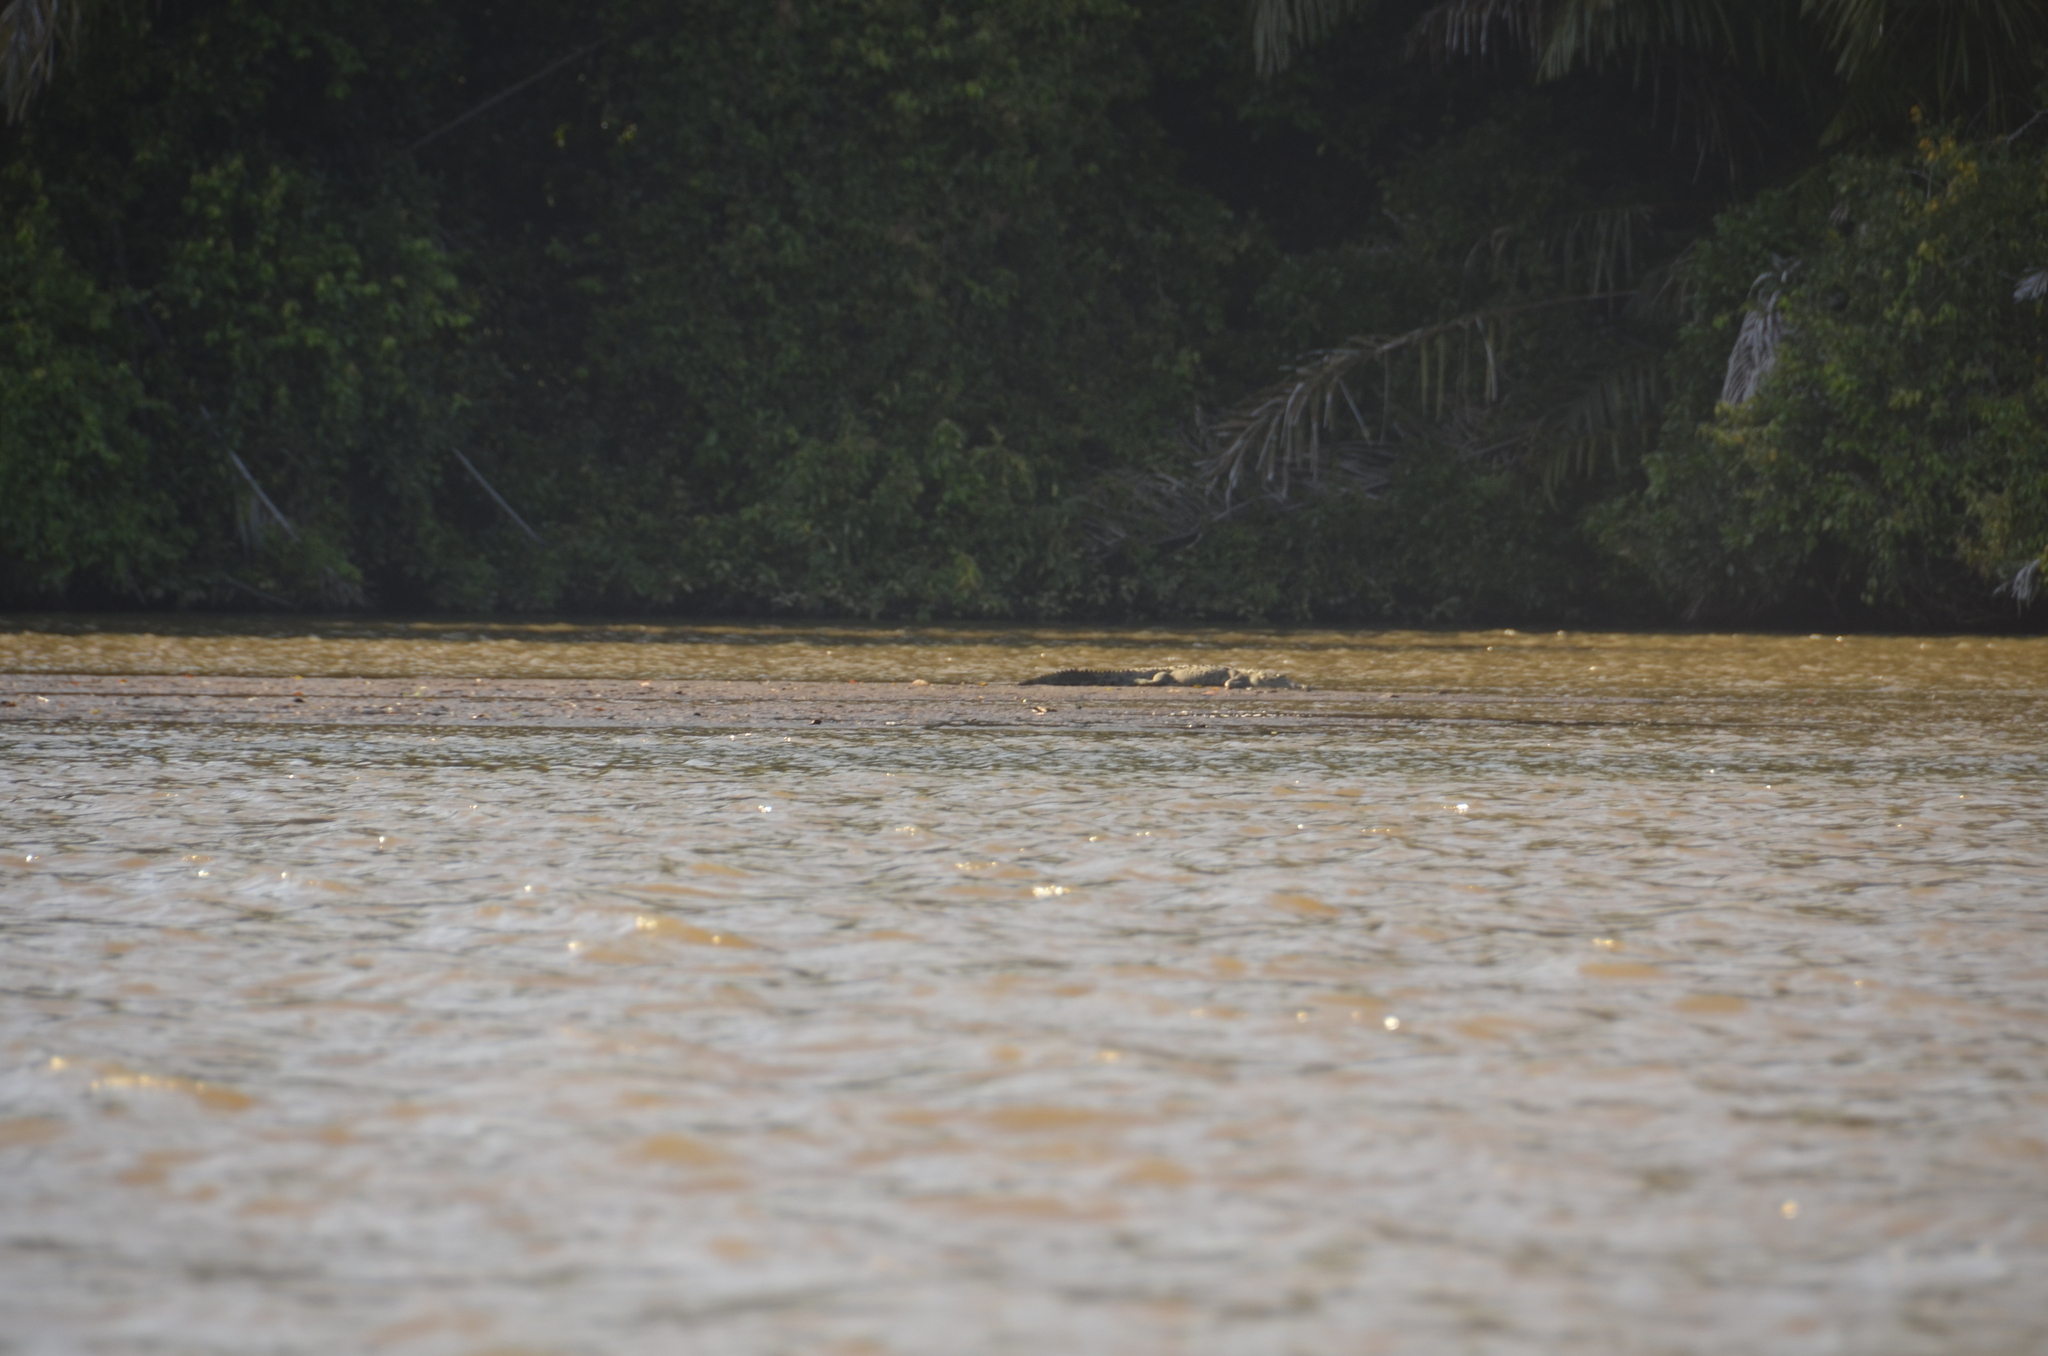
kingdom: Animalia
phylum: Chordata
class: Crocodylia
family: Crocodylidae
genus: Crocodylus
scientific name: Crocodylus acutus
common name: American crocodile
